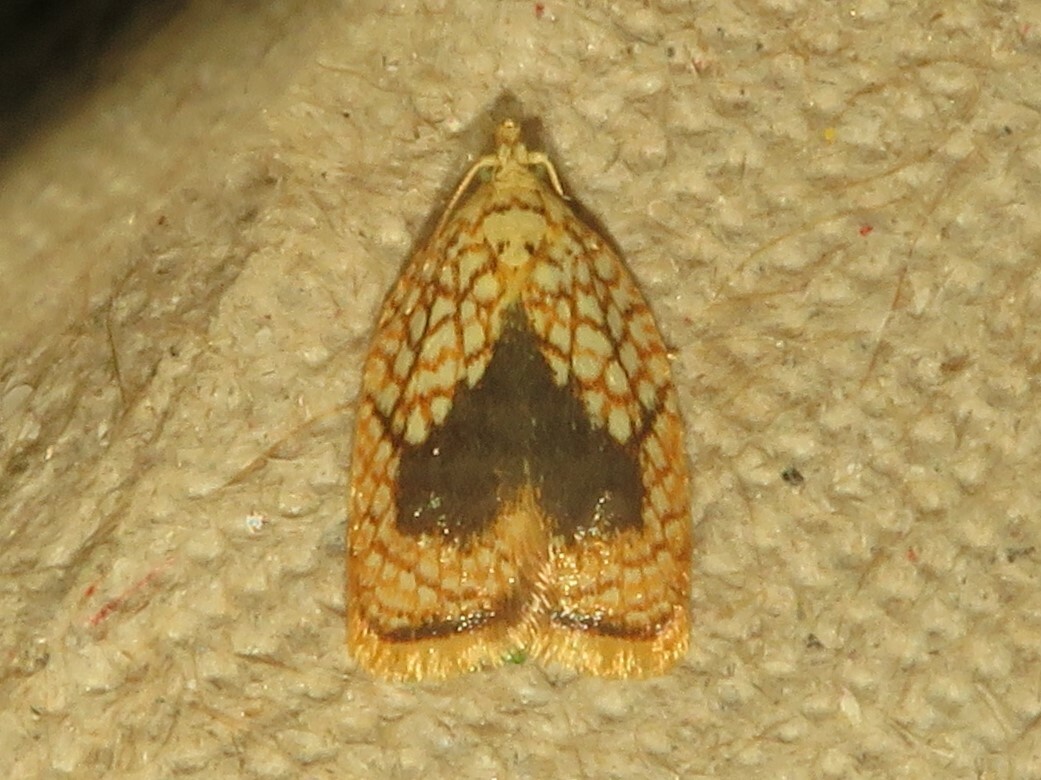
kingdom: Animalia
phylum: Arthropoda
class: Insecta
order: Lepidoptera
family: Tortricidae
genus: Acleris
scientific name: Acleris forsskaleana
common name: Maple button
